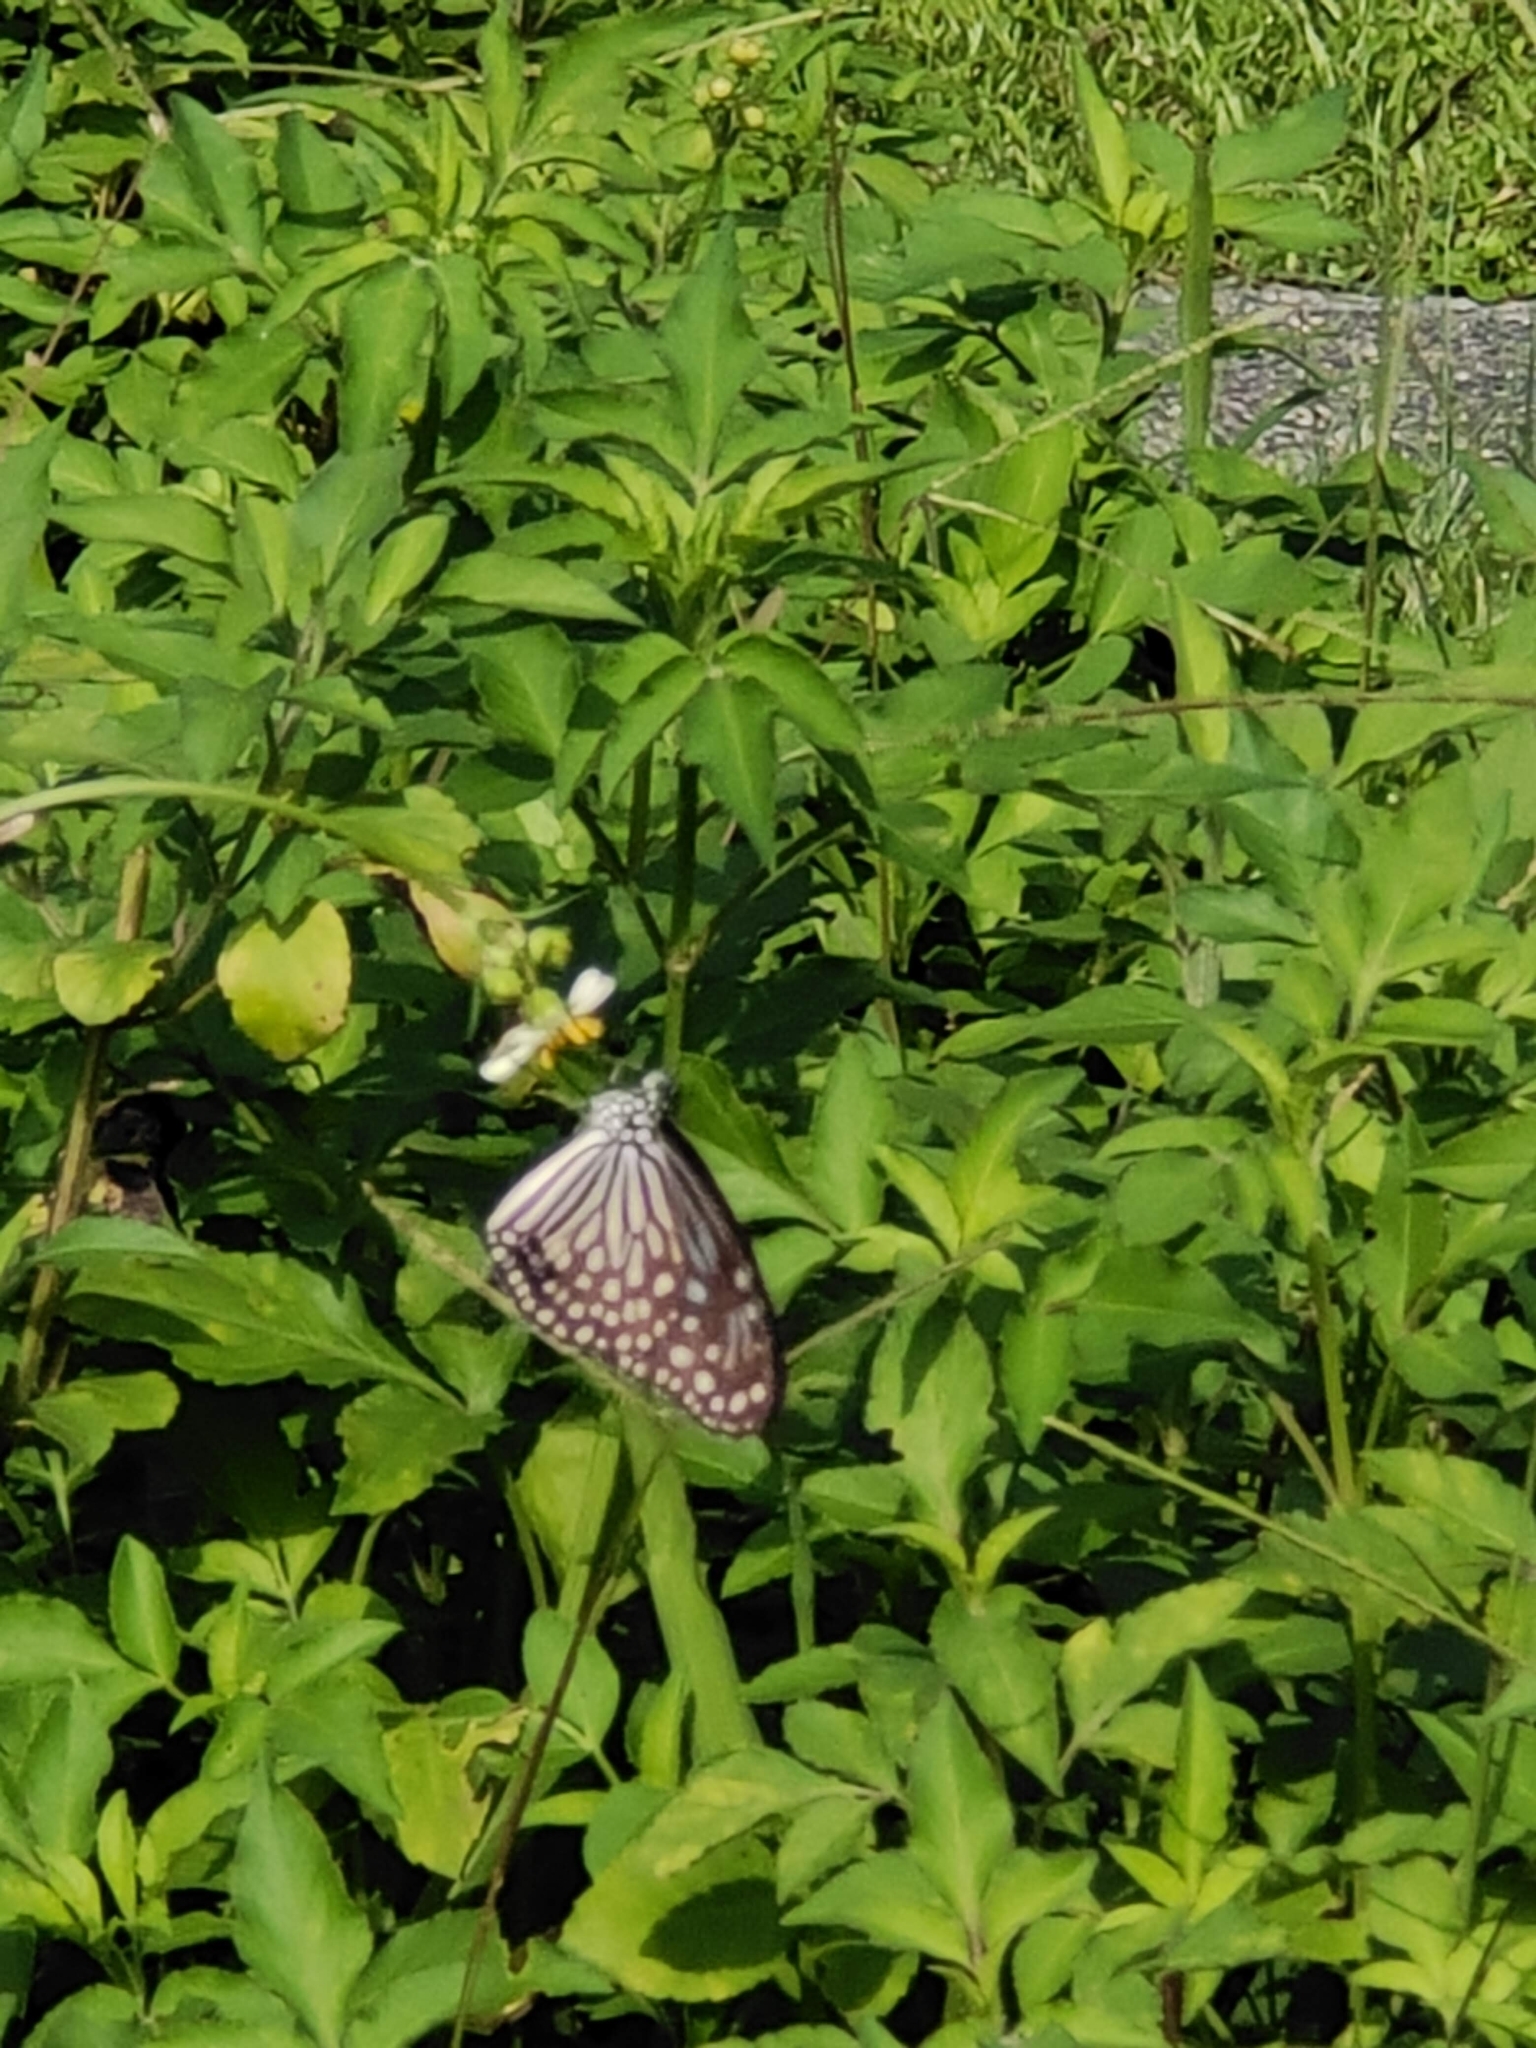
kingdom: Animalia
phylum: Arthropoda
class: Insecta
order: Lepidoptera
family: Nymphalidae
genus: Parantica
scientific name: Parantica agleoides
